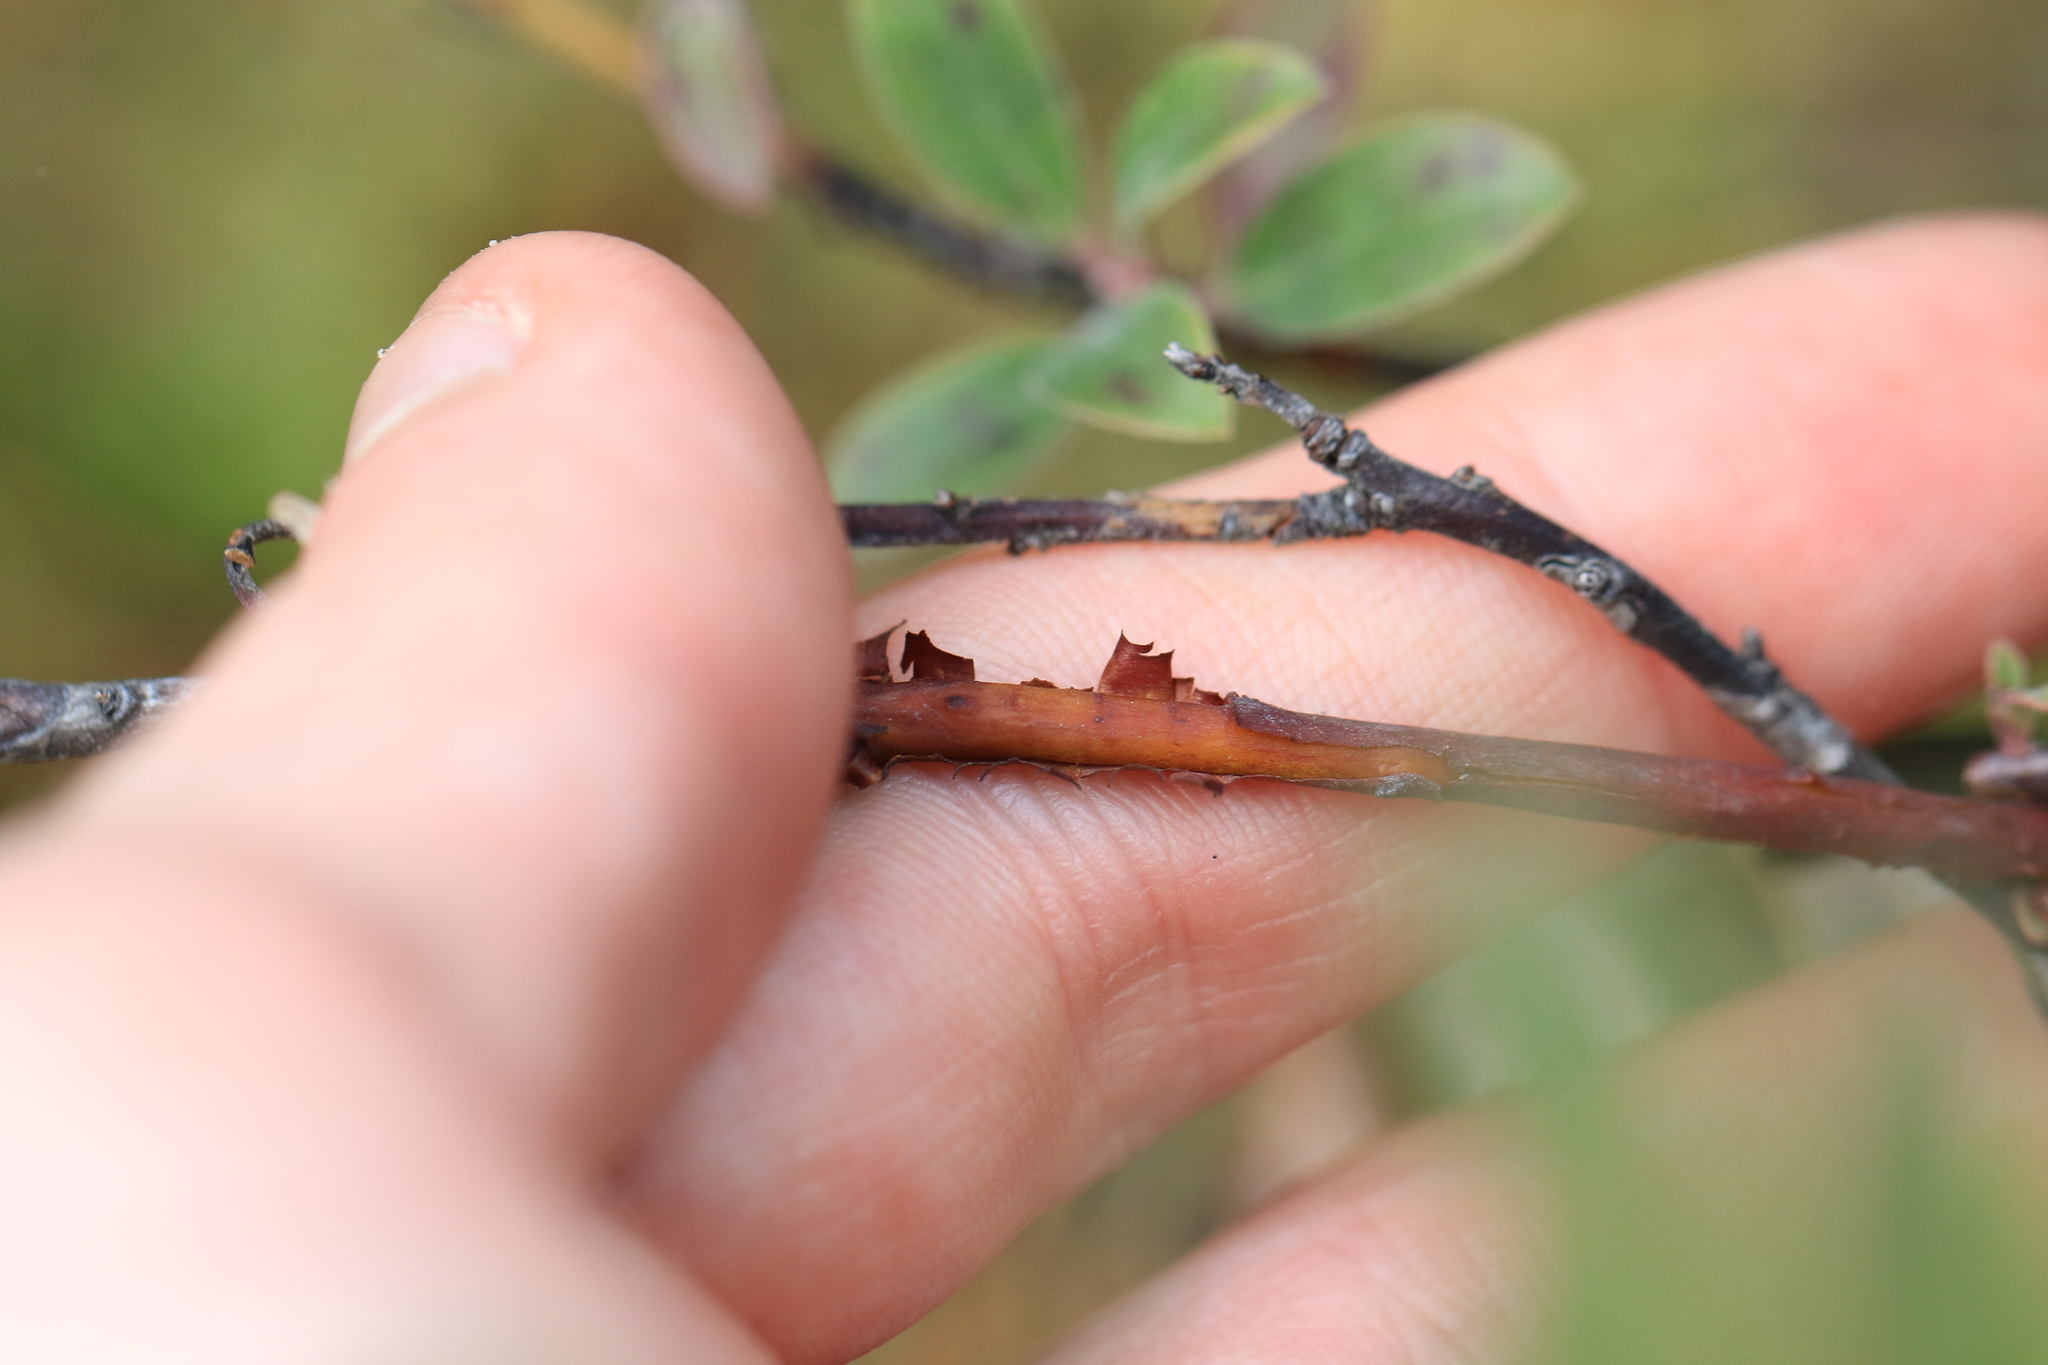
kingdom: Plantae
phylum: Tracheophyta
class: Magnoliopsida
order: Ericales
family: Ericaceae
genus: Arctostaphylos
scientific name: Arctostaphylos media
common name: Hybrid manzanita
